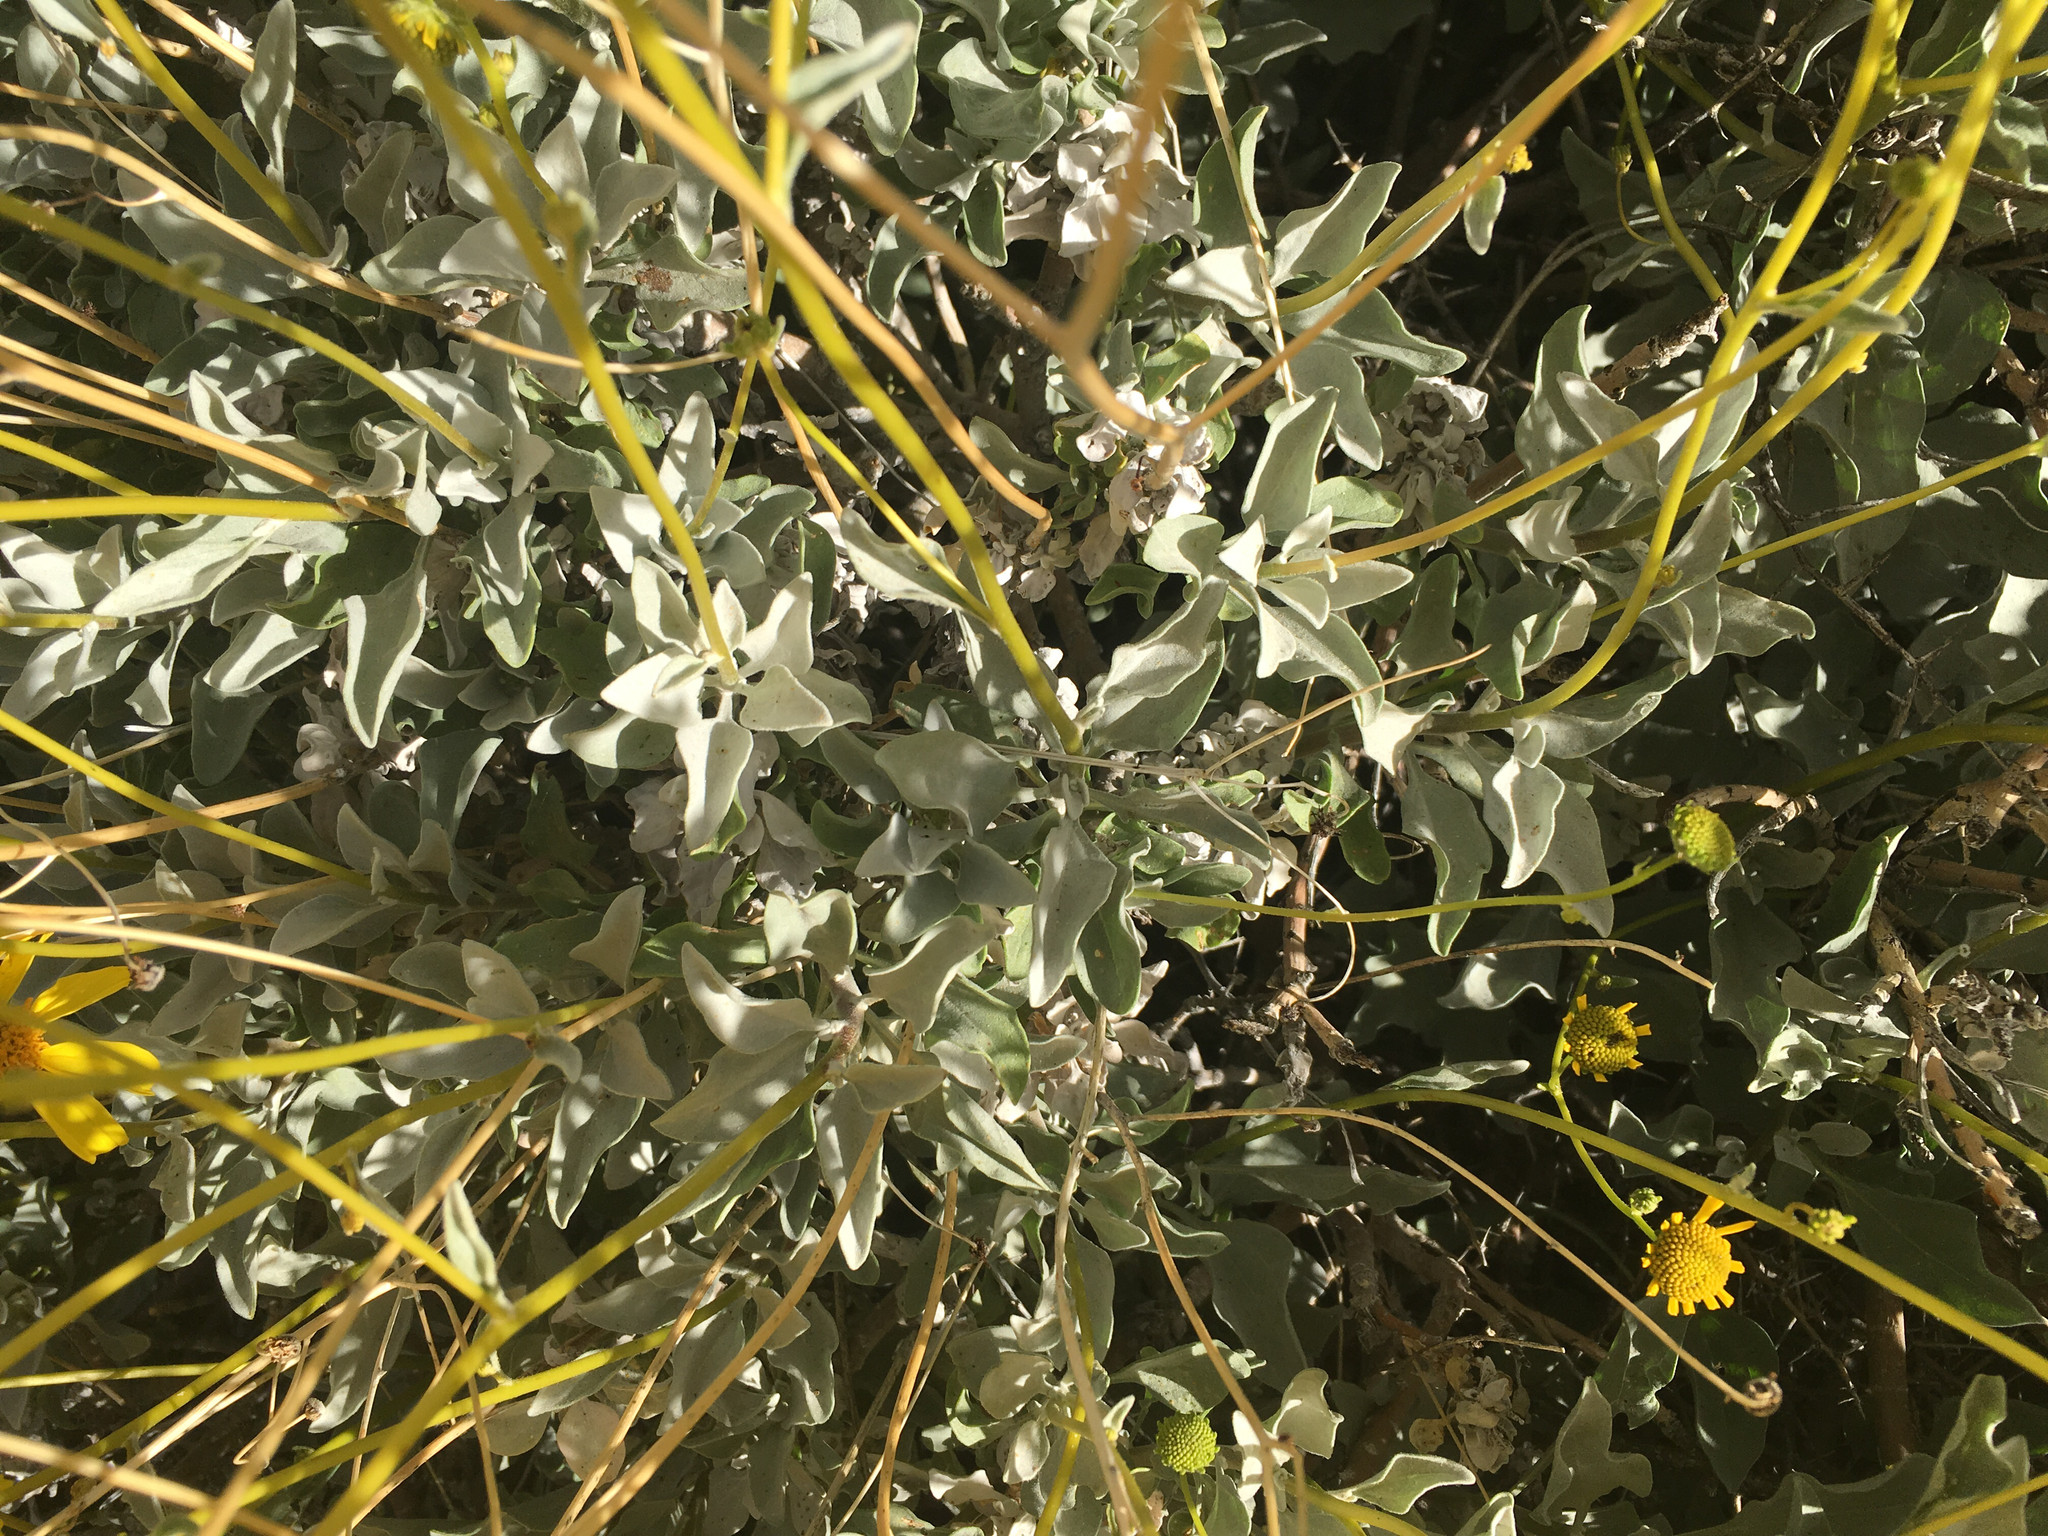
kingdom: Plantae
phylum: Tracheophyta
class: Magnoliopsida
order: Asterales
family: Asteraceae
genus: Encelia
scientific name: Encelia farinosa
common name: Brittlebush
